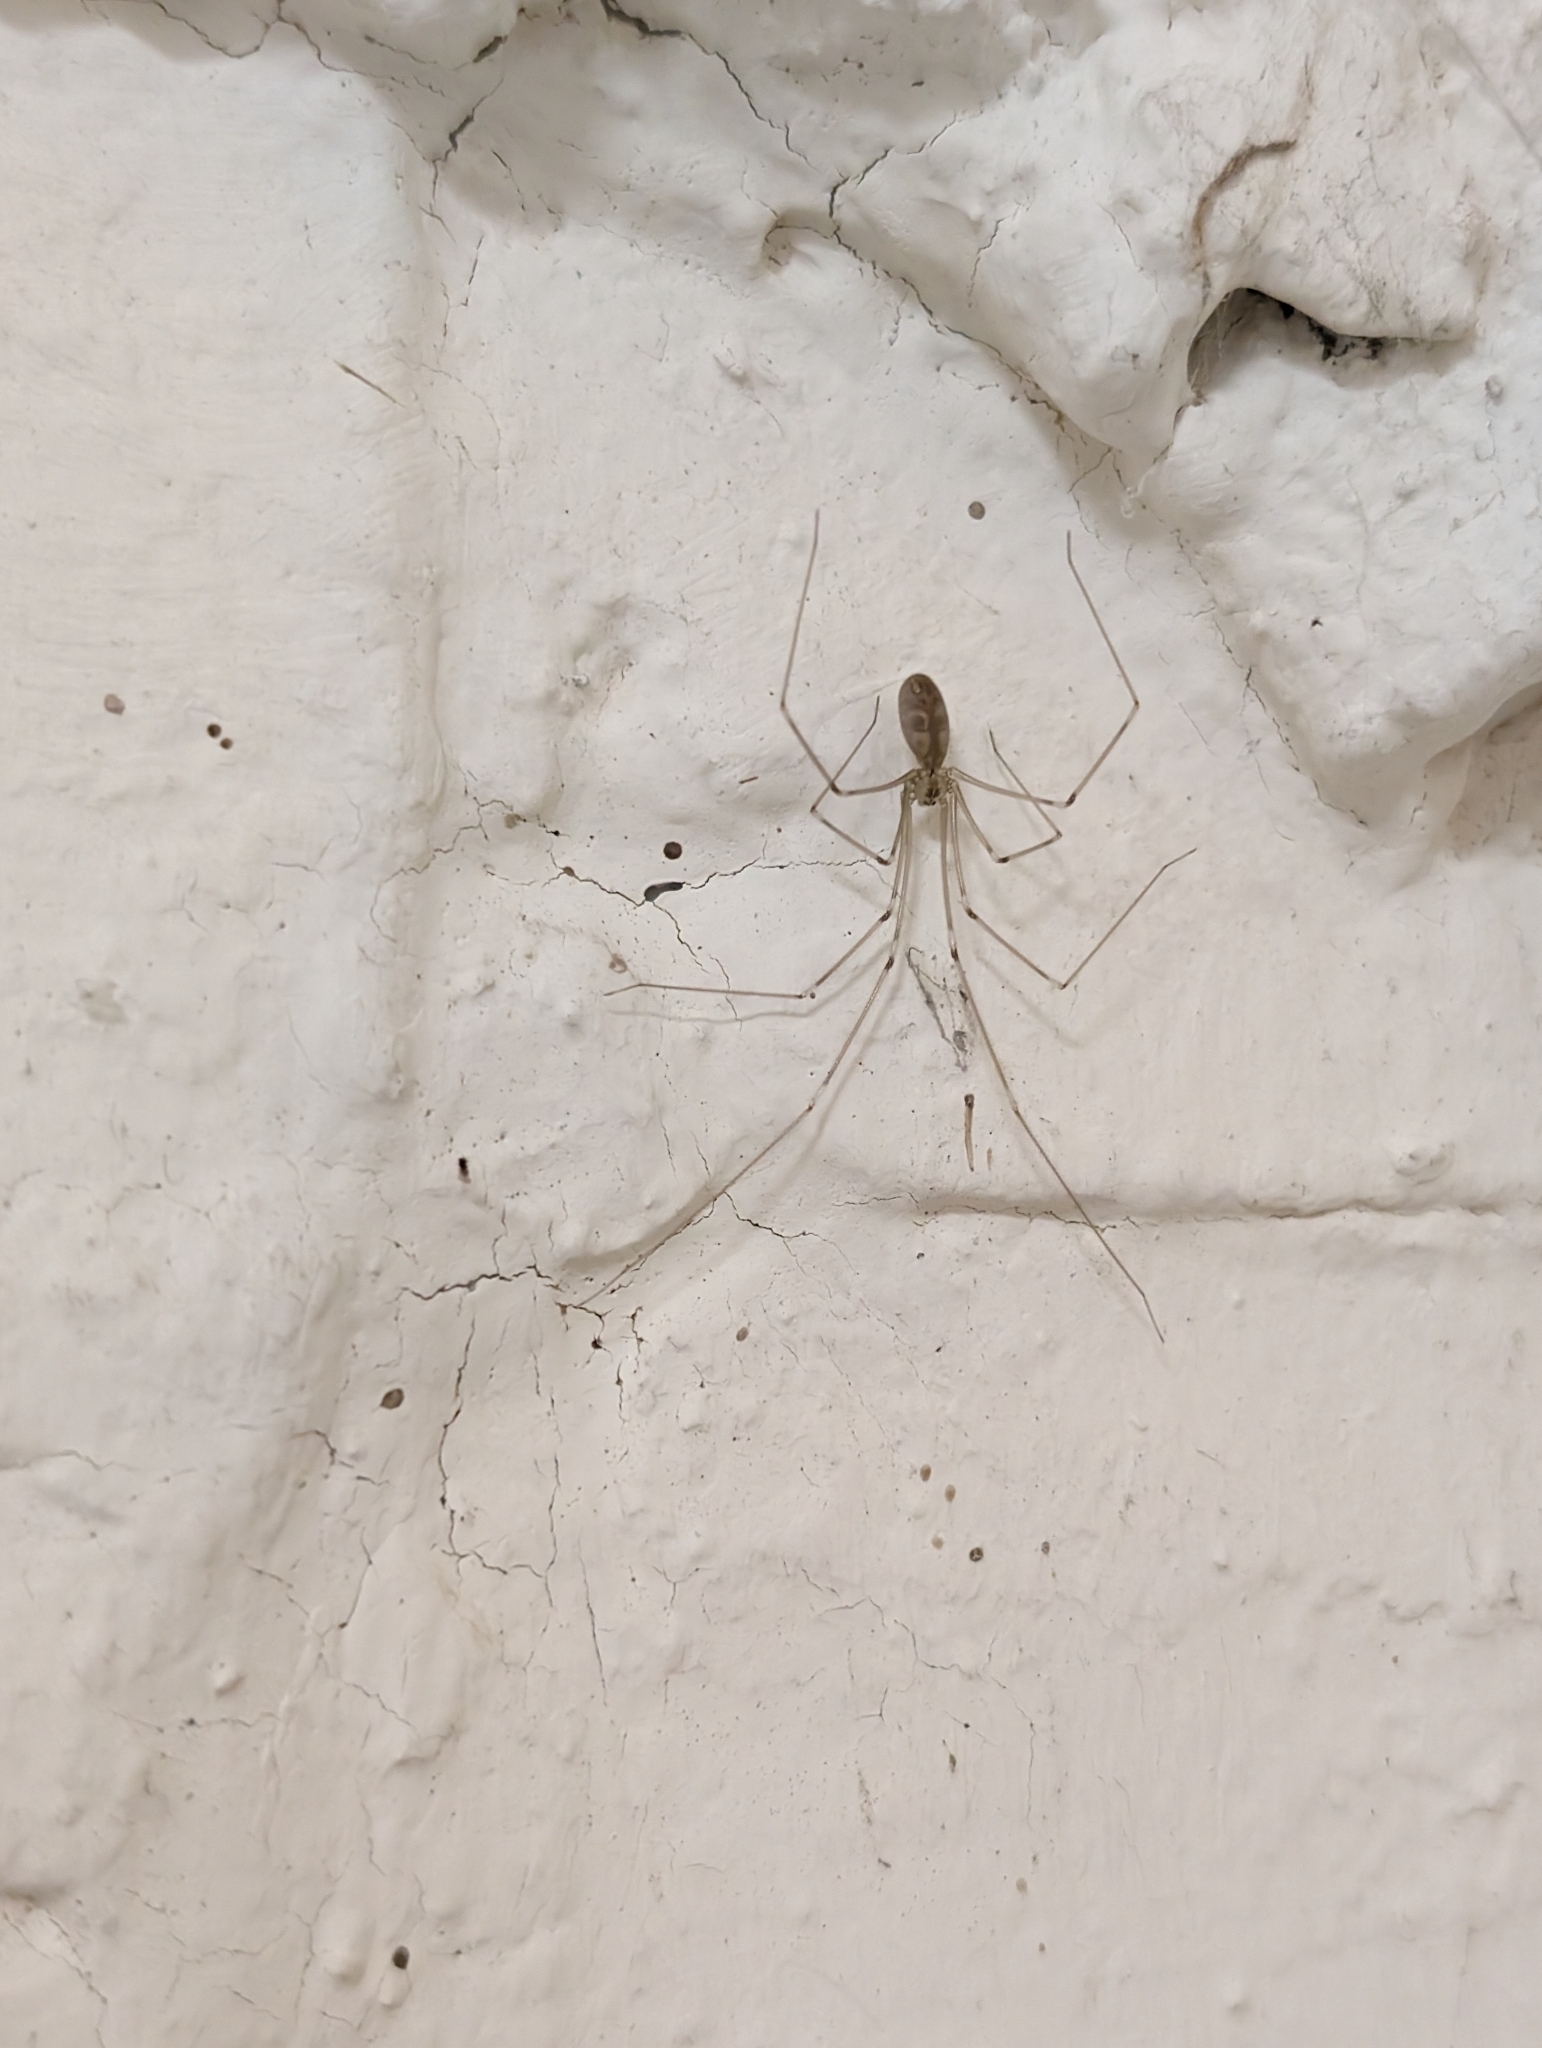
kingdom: Animalia
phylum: Arthropoda
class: Arachnida
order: Araneae
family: Pholcidae
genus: Pholcus
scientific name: Pholcus phalangioides
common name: Longbodied cellar spider
